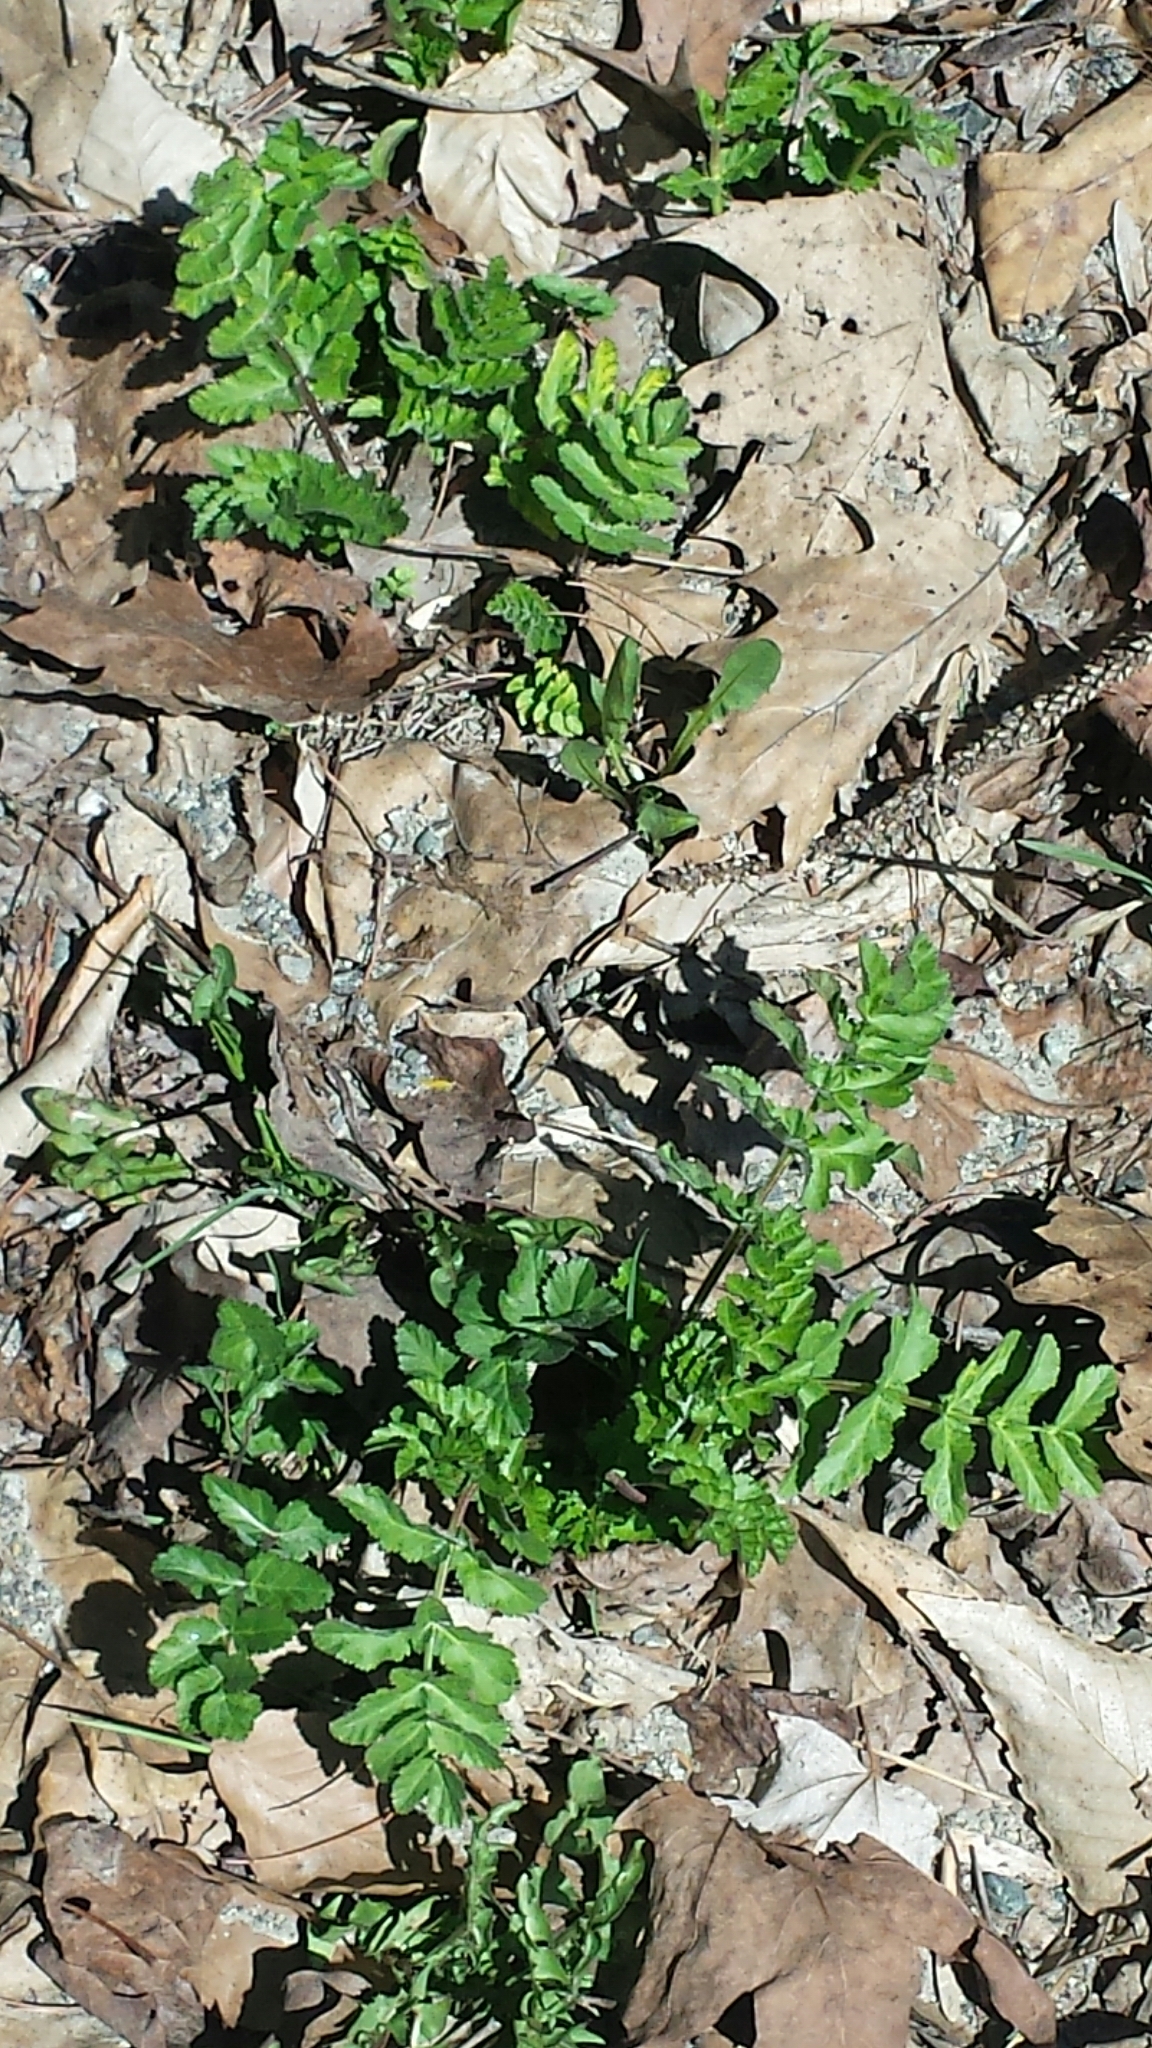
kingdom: Plantae
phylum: Tracheophyta
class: Magnoliopsida
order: Apiales
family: Apiaceae
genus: Pastinaca
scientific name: Pastinaca sativa
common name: Wild parsnip
